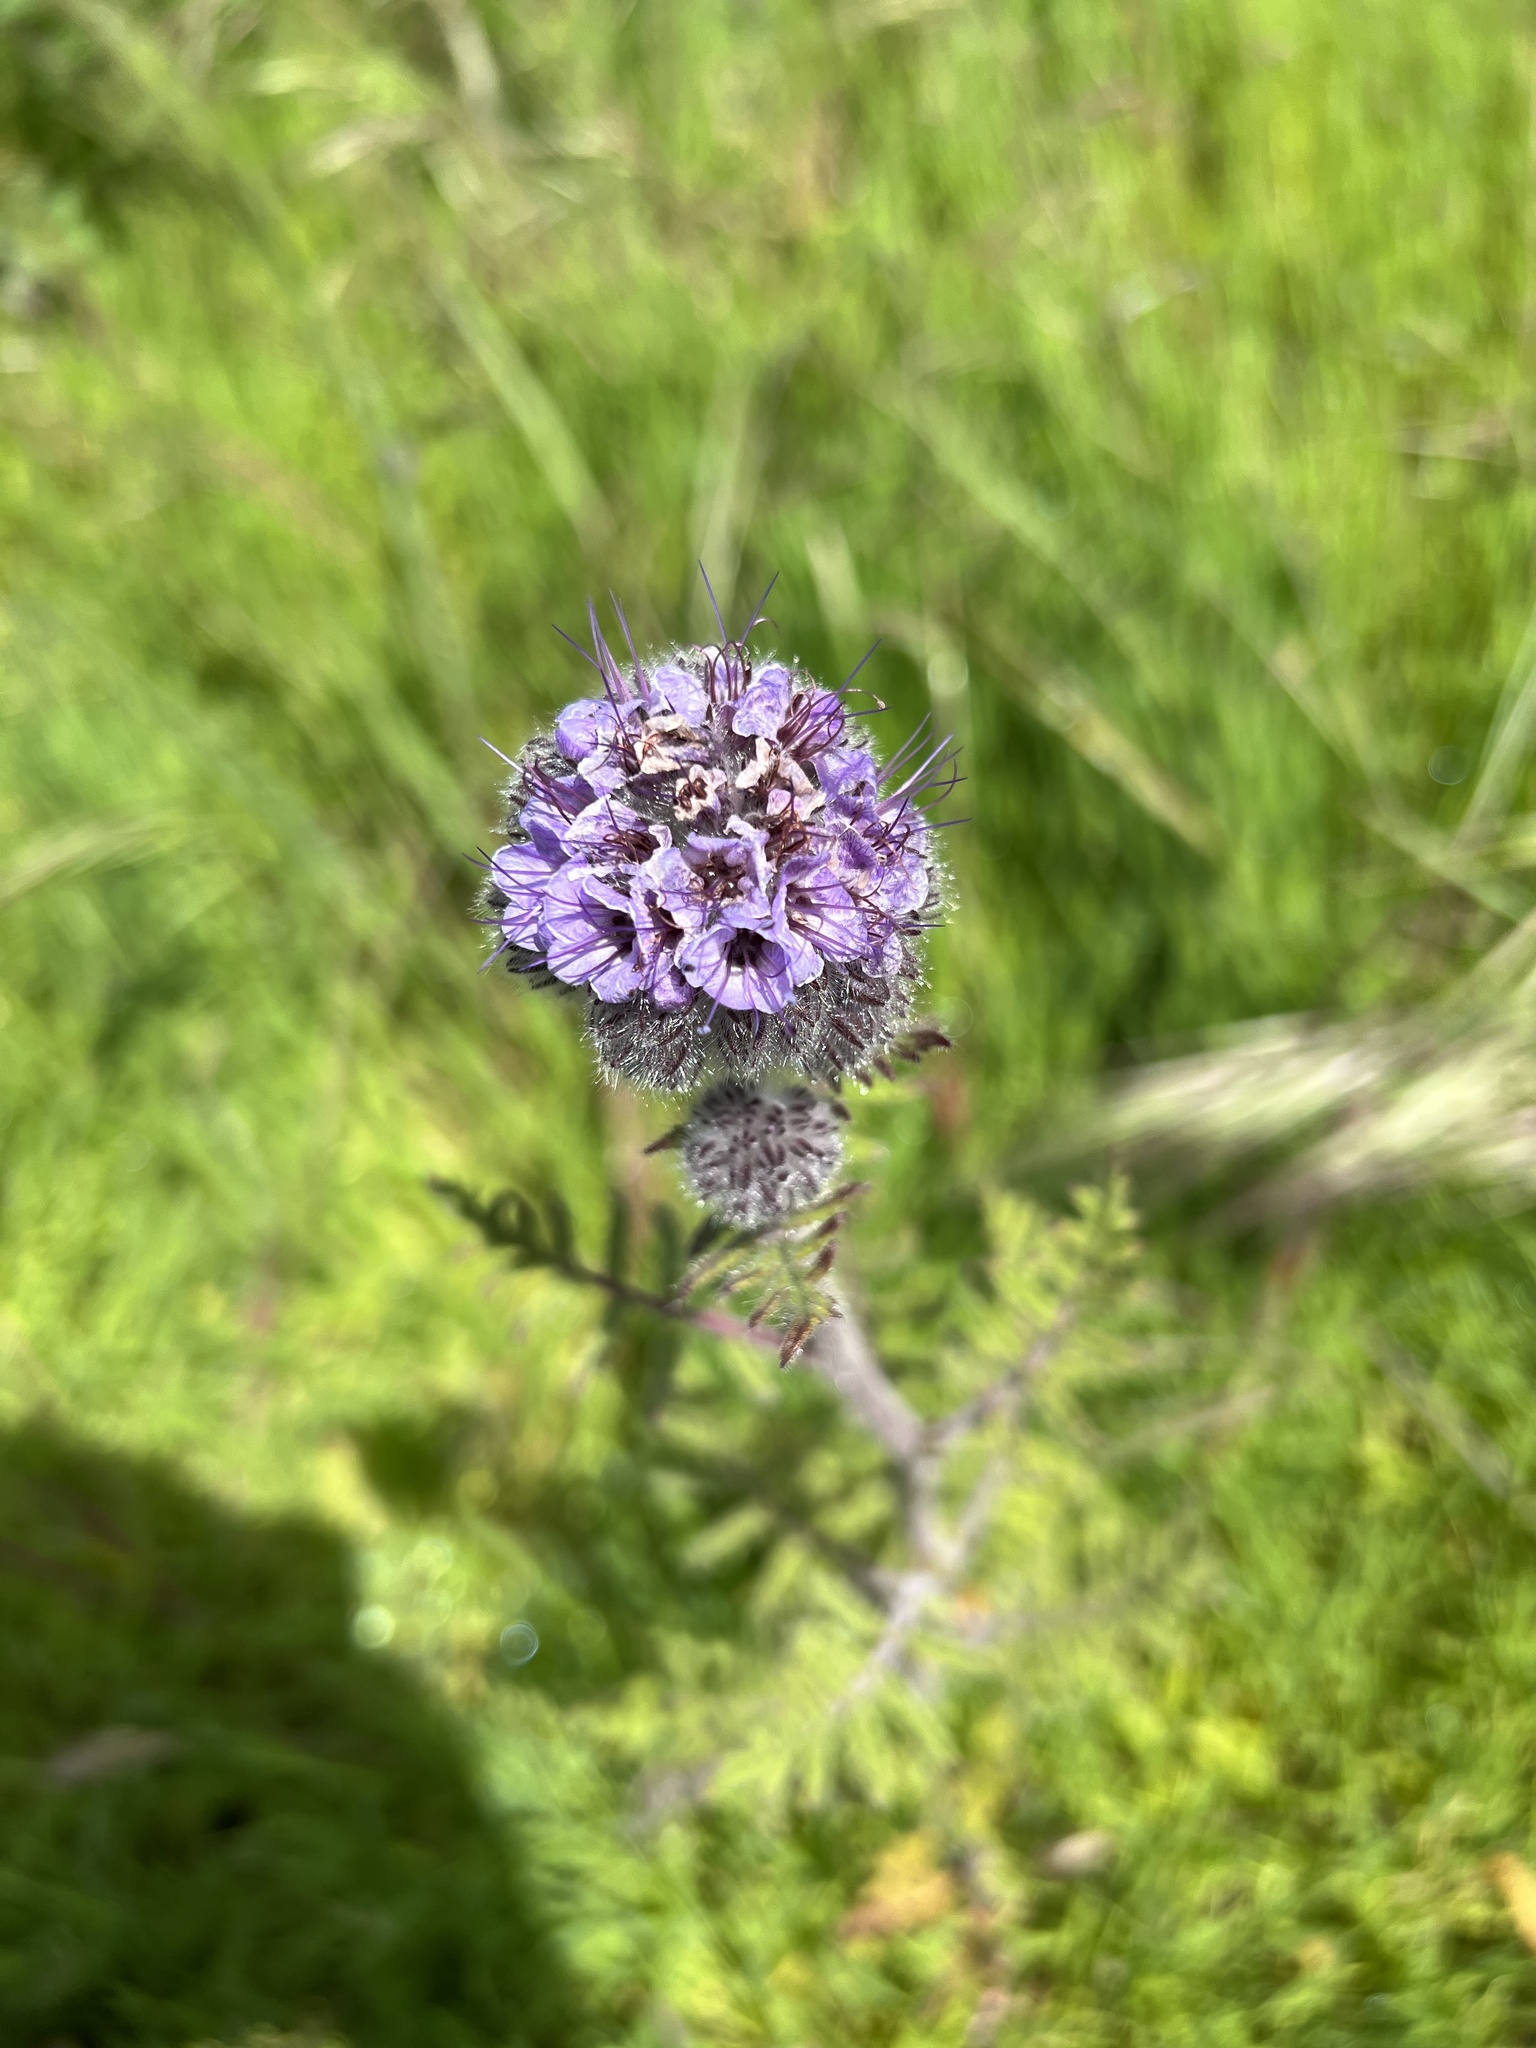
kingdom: Plantae
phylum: Tracheophyta
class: Magnoliopsida
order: Boraginales
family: Hydrophyllaceae
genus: Phacelia
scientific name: Phacelia hubbyi
